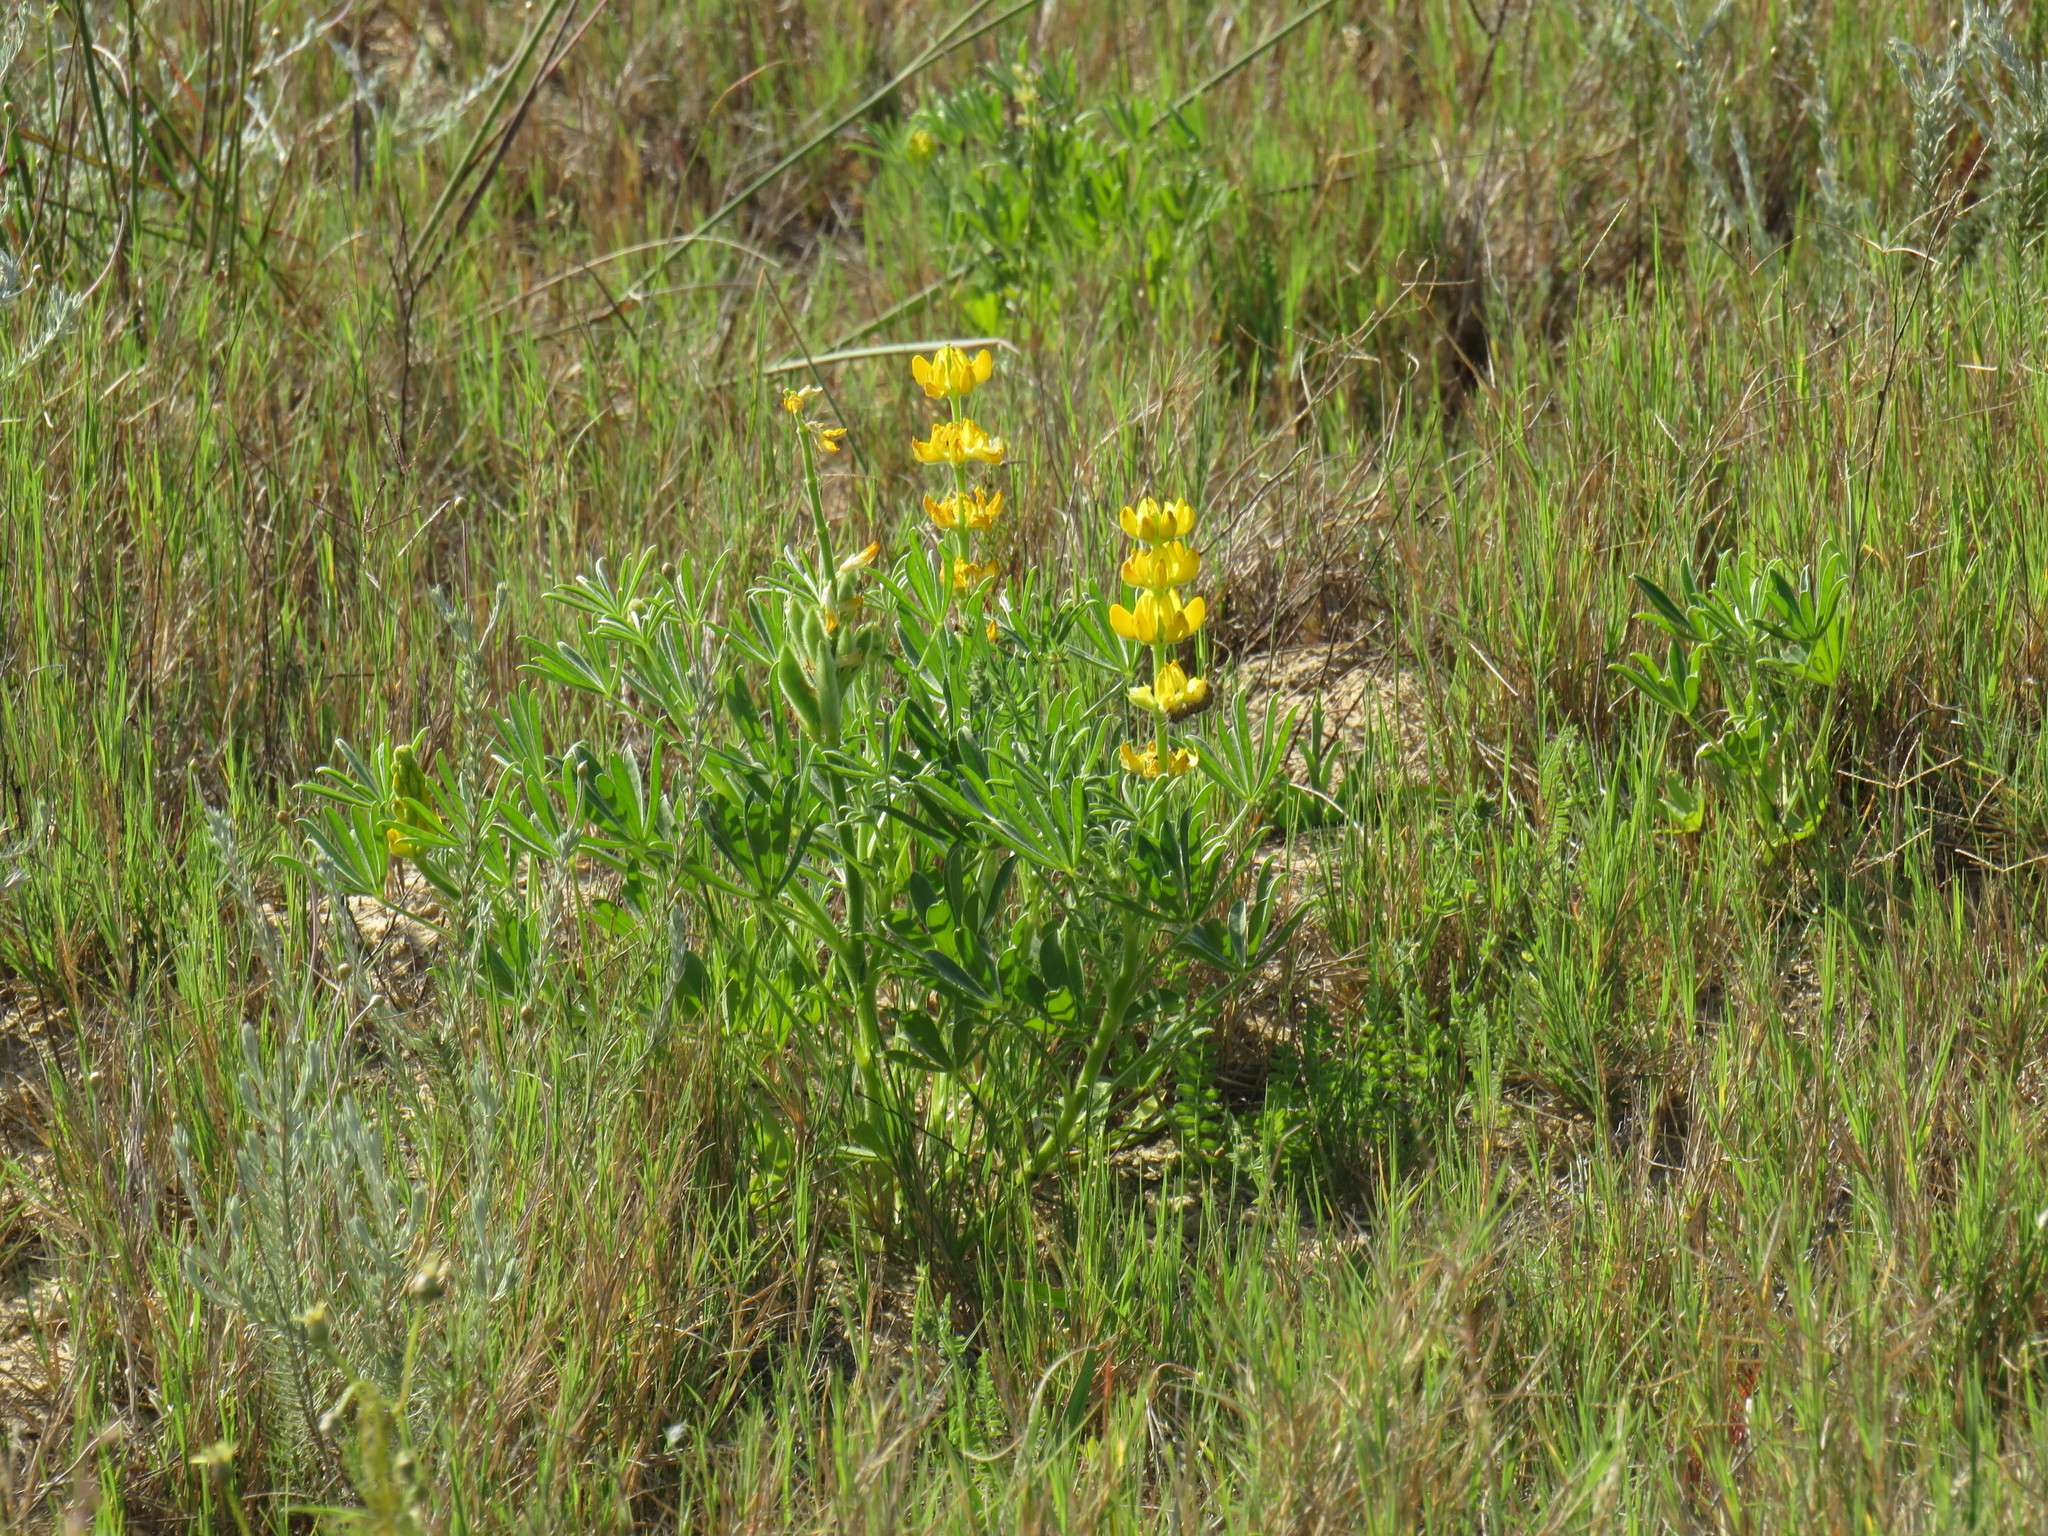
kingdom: Plantae
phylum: Tracheophyta
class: Magnoliopsida
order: Fabales
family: Fabaceae
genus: Lupinus
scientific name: Lupinus luteus
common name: European yellow lupine
